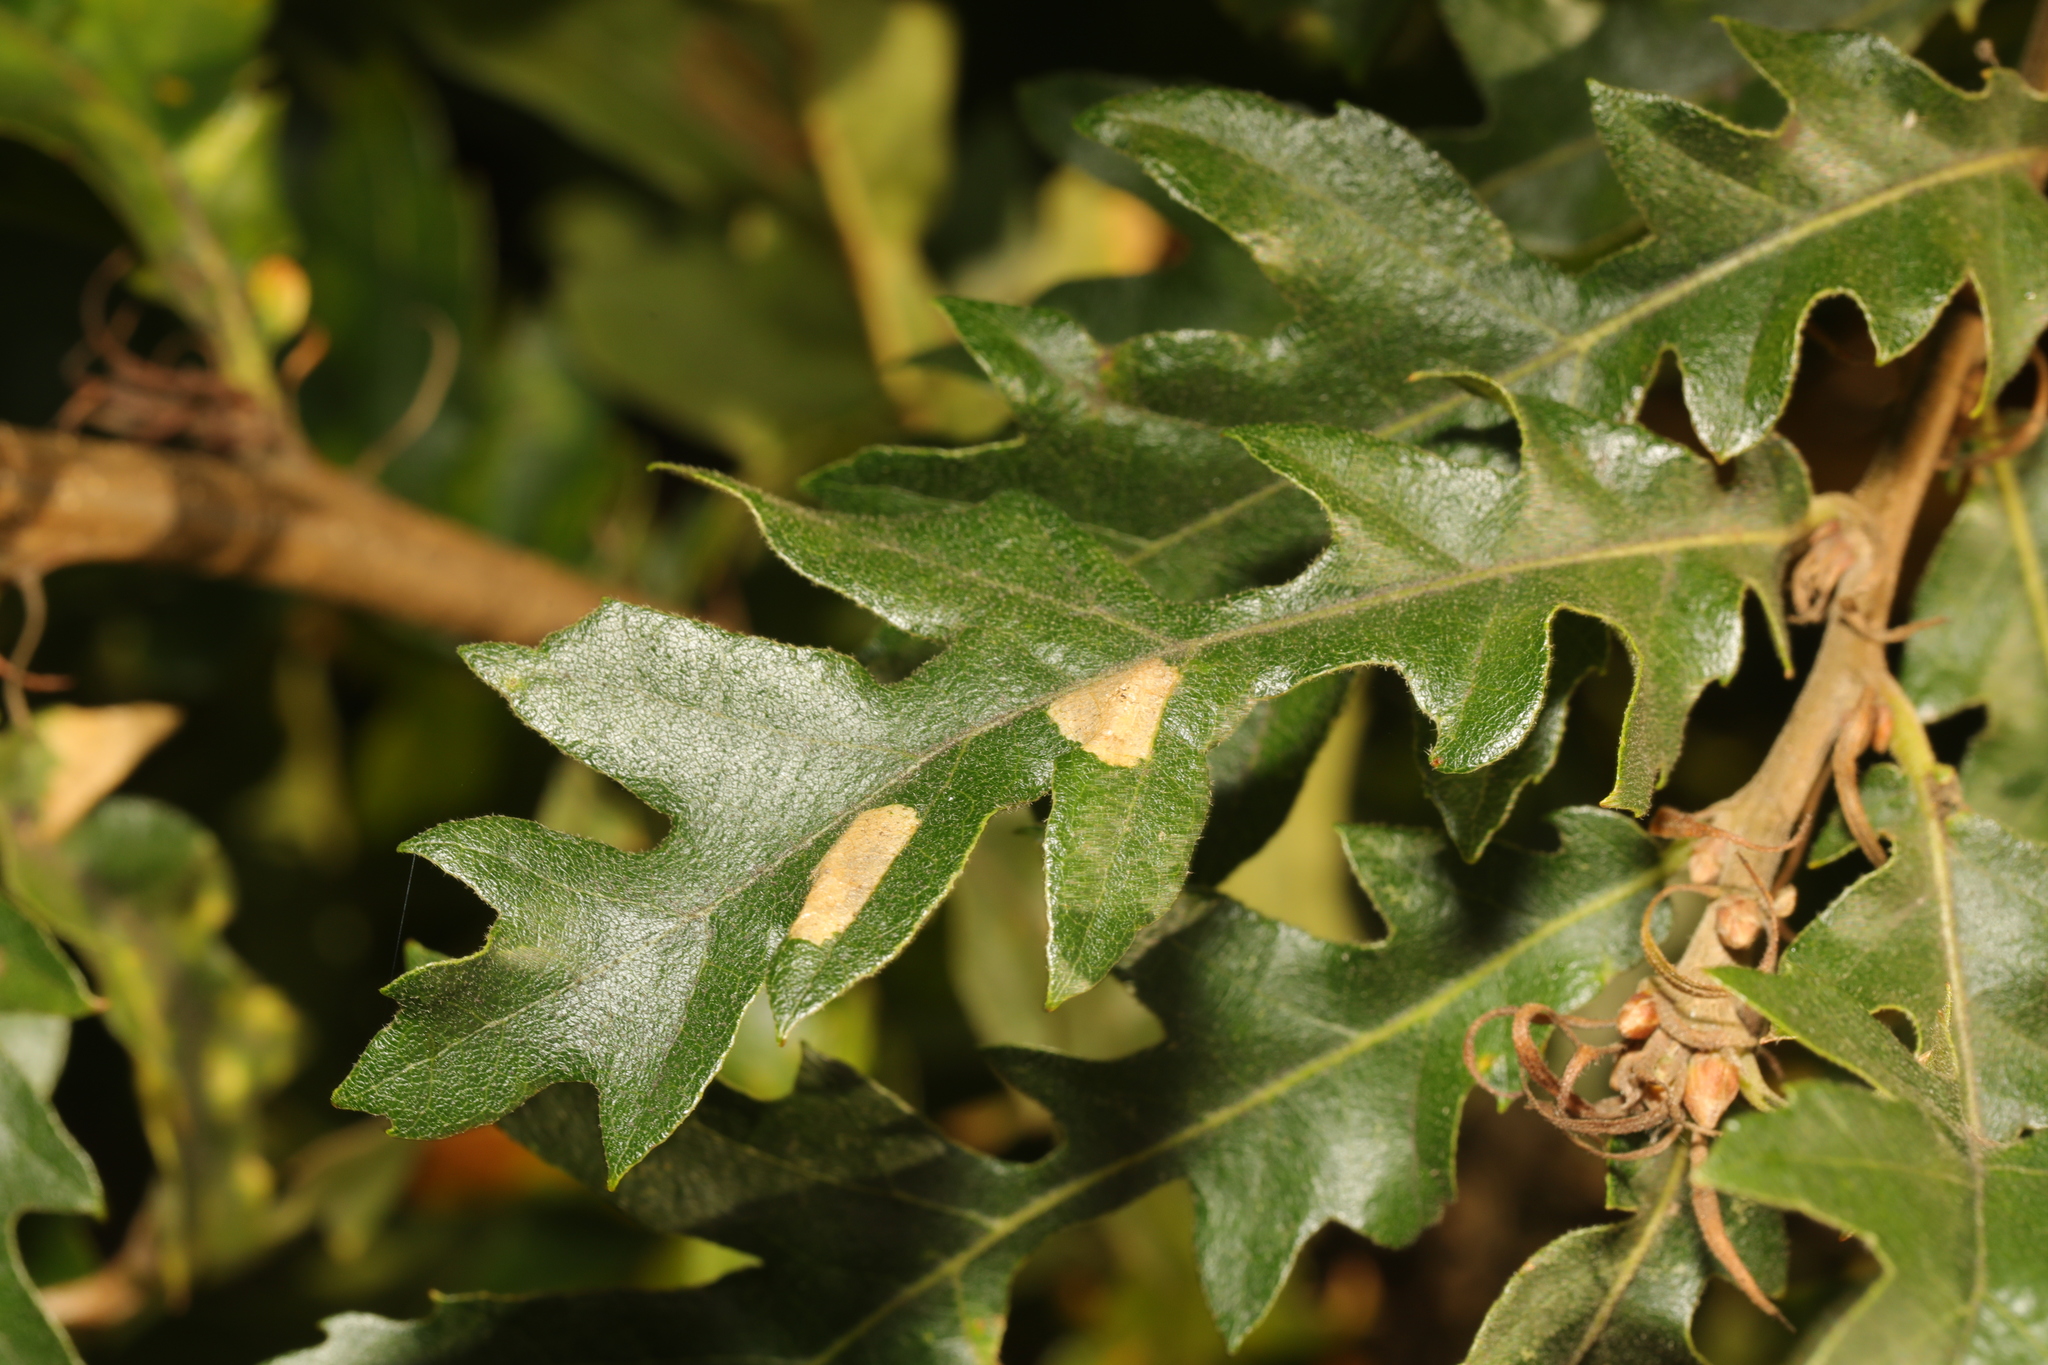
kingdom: Plantae
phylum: Tracheophyta
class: Magnoliopsida
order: Fagales
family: Fagaceae
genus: Quercus
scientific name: Quercus cerris
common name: Turkey oak
